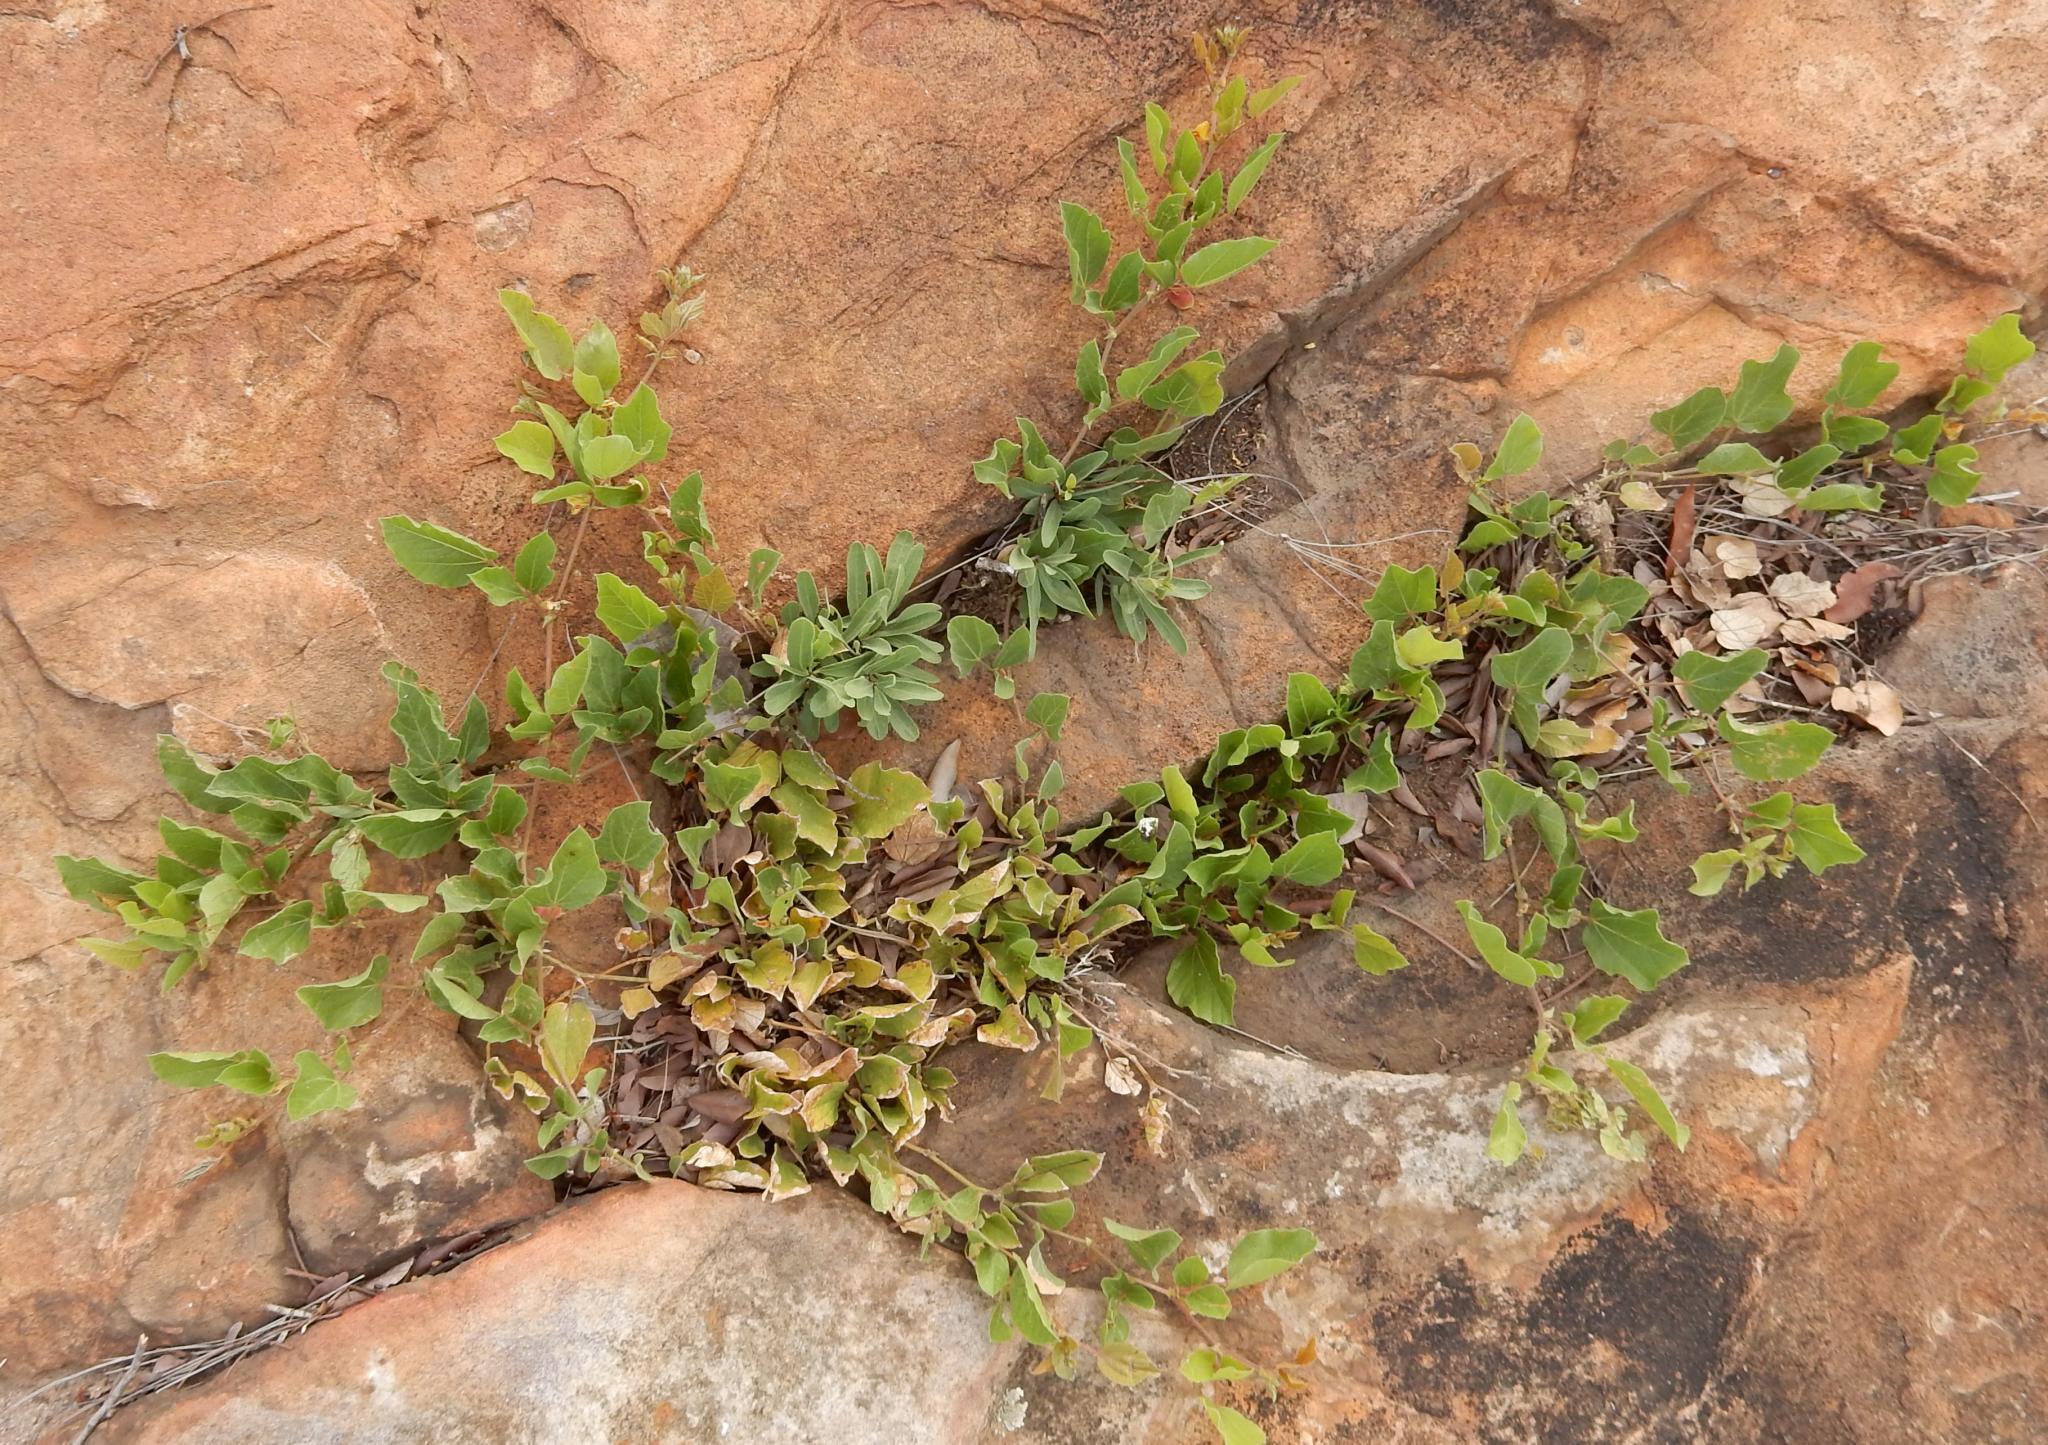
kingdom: Plantae
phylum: Tracheophyta
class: Magnoliopsida
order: Fabales
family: Fabaceae
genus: Rhynchosia
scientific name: Rhynchosia monophylla
